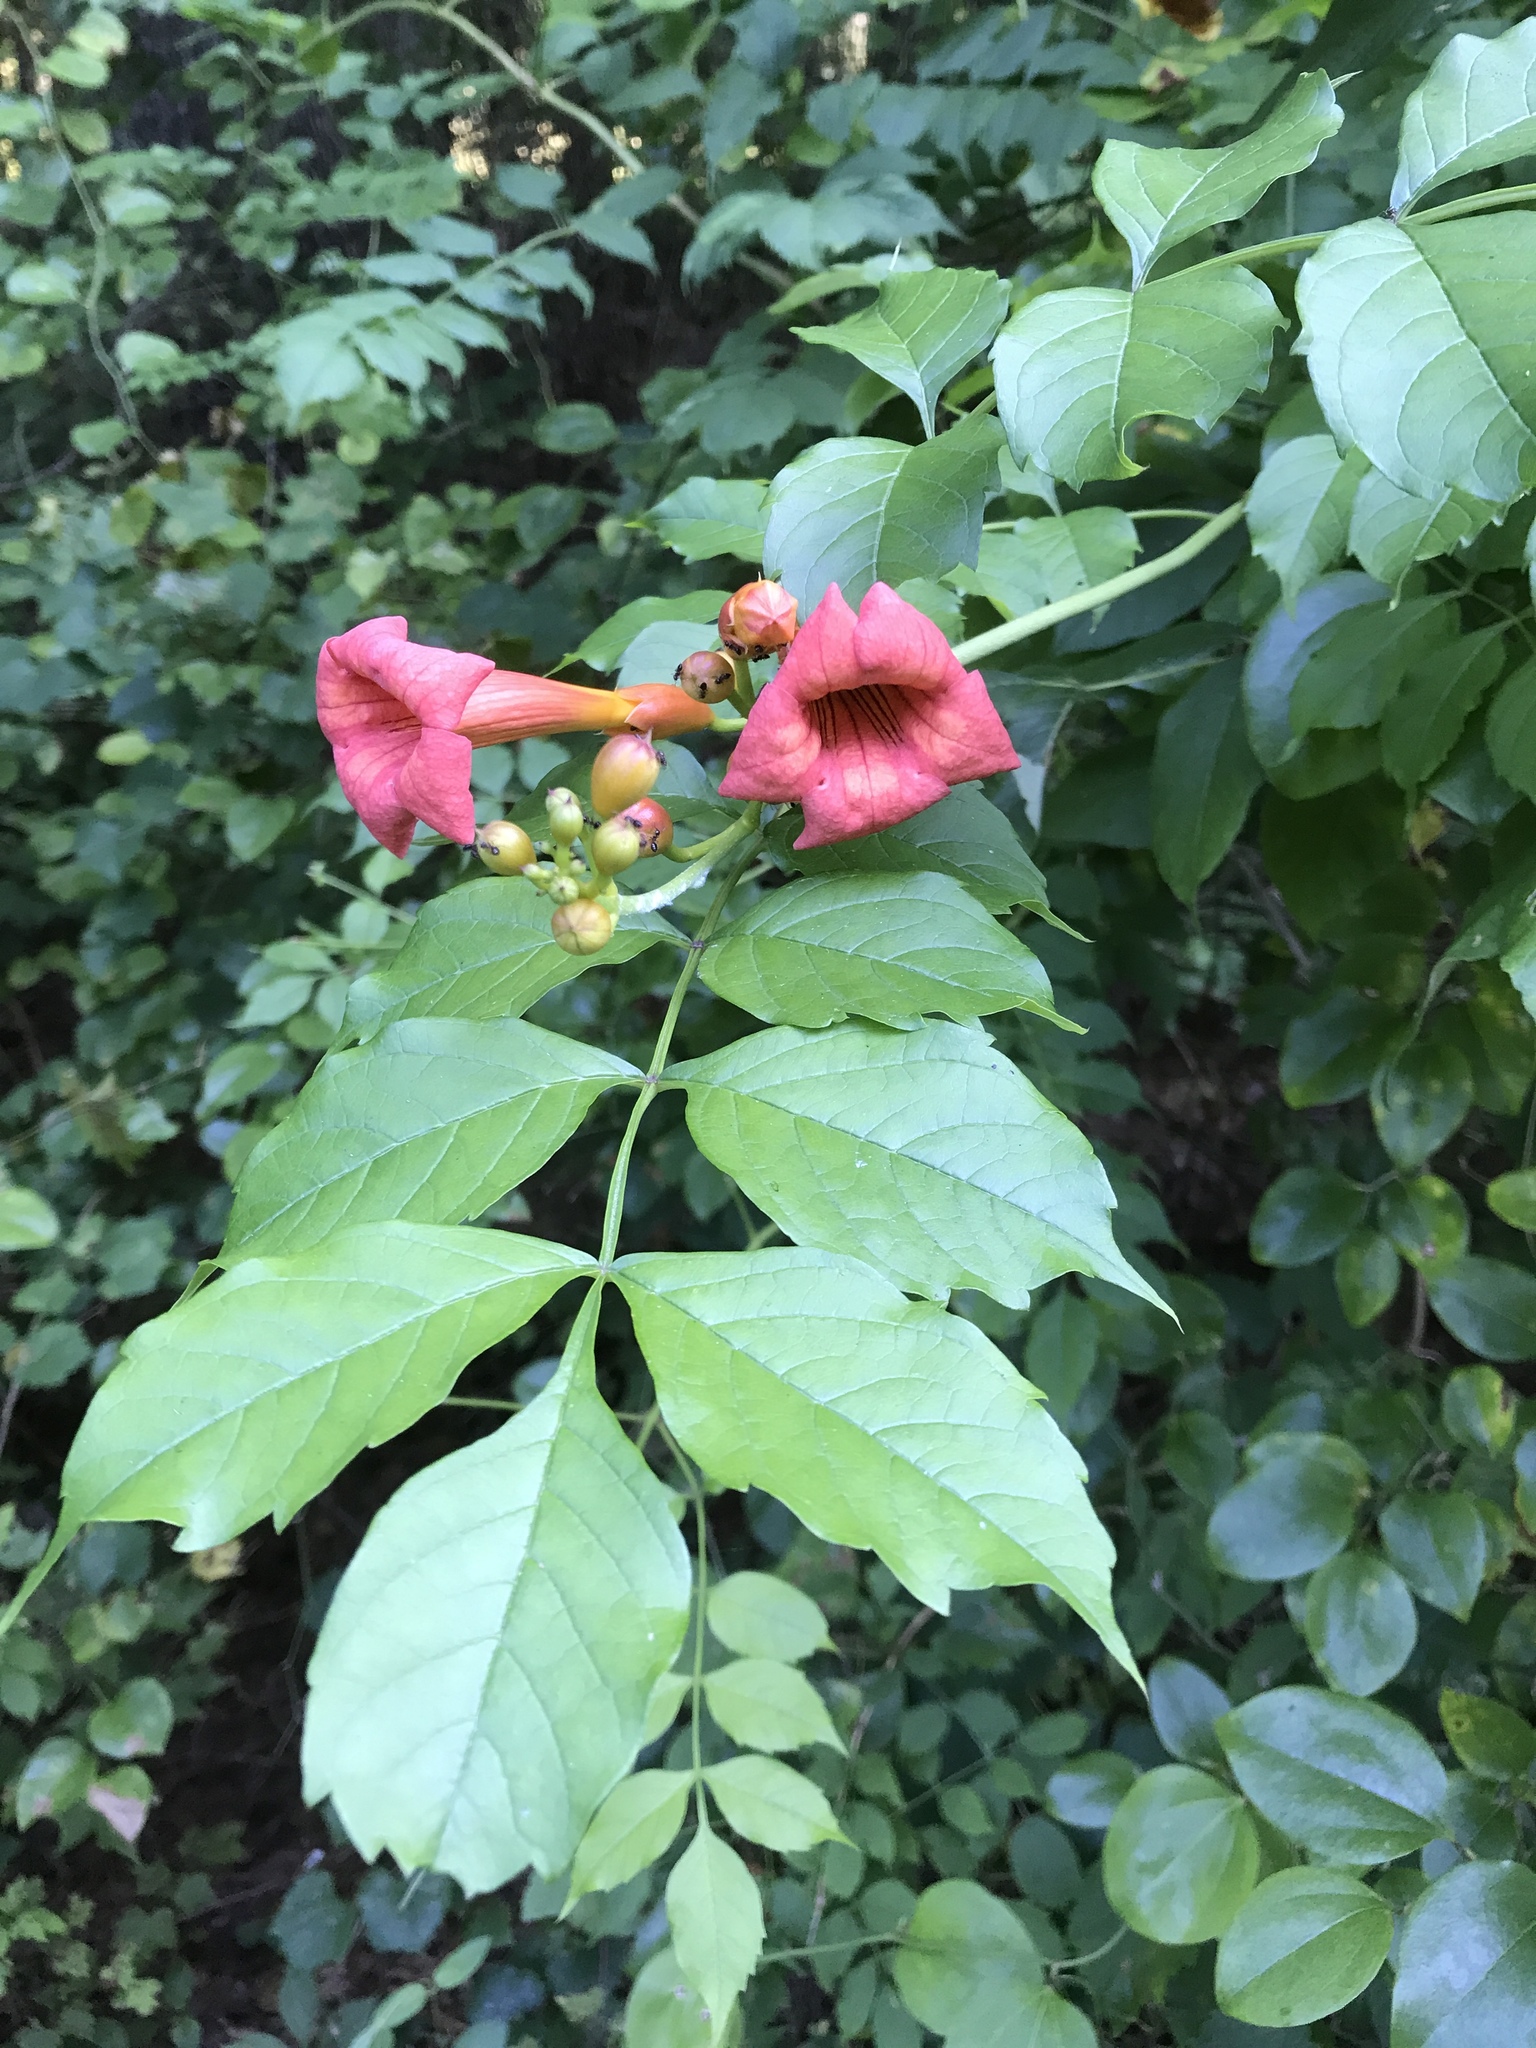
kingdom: Plantae
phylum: Tracheophyta
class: Magnoliopsida
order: Lamiales
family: Bignoniaceae
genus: Campsis
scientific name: Campsis radicans
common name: Trumpet-creeper
